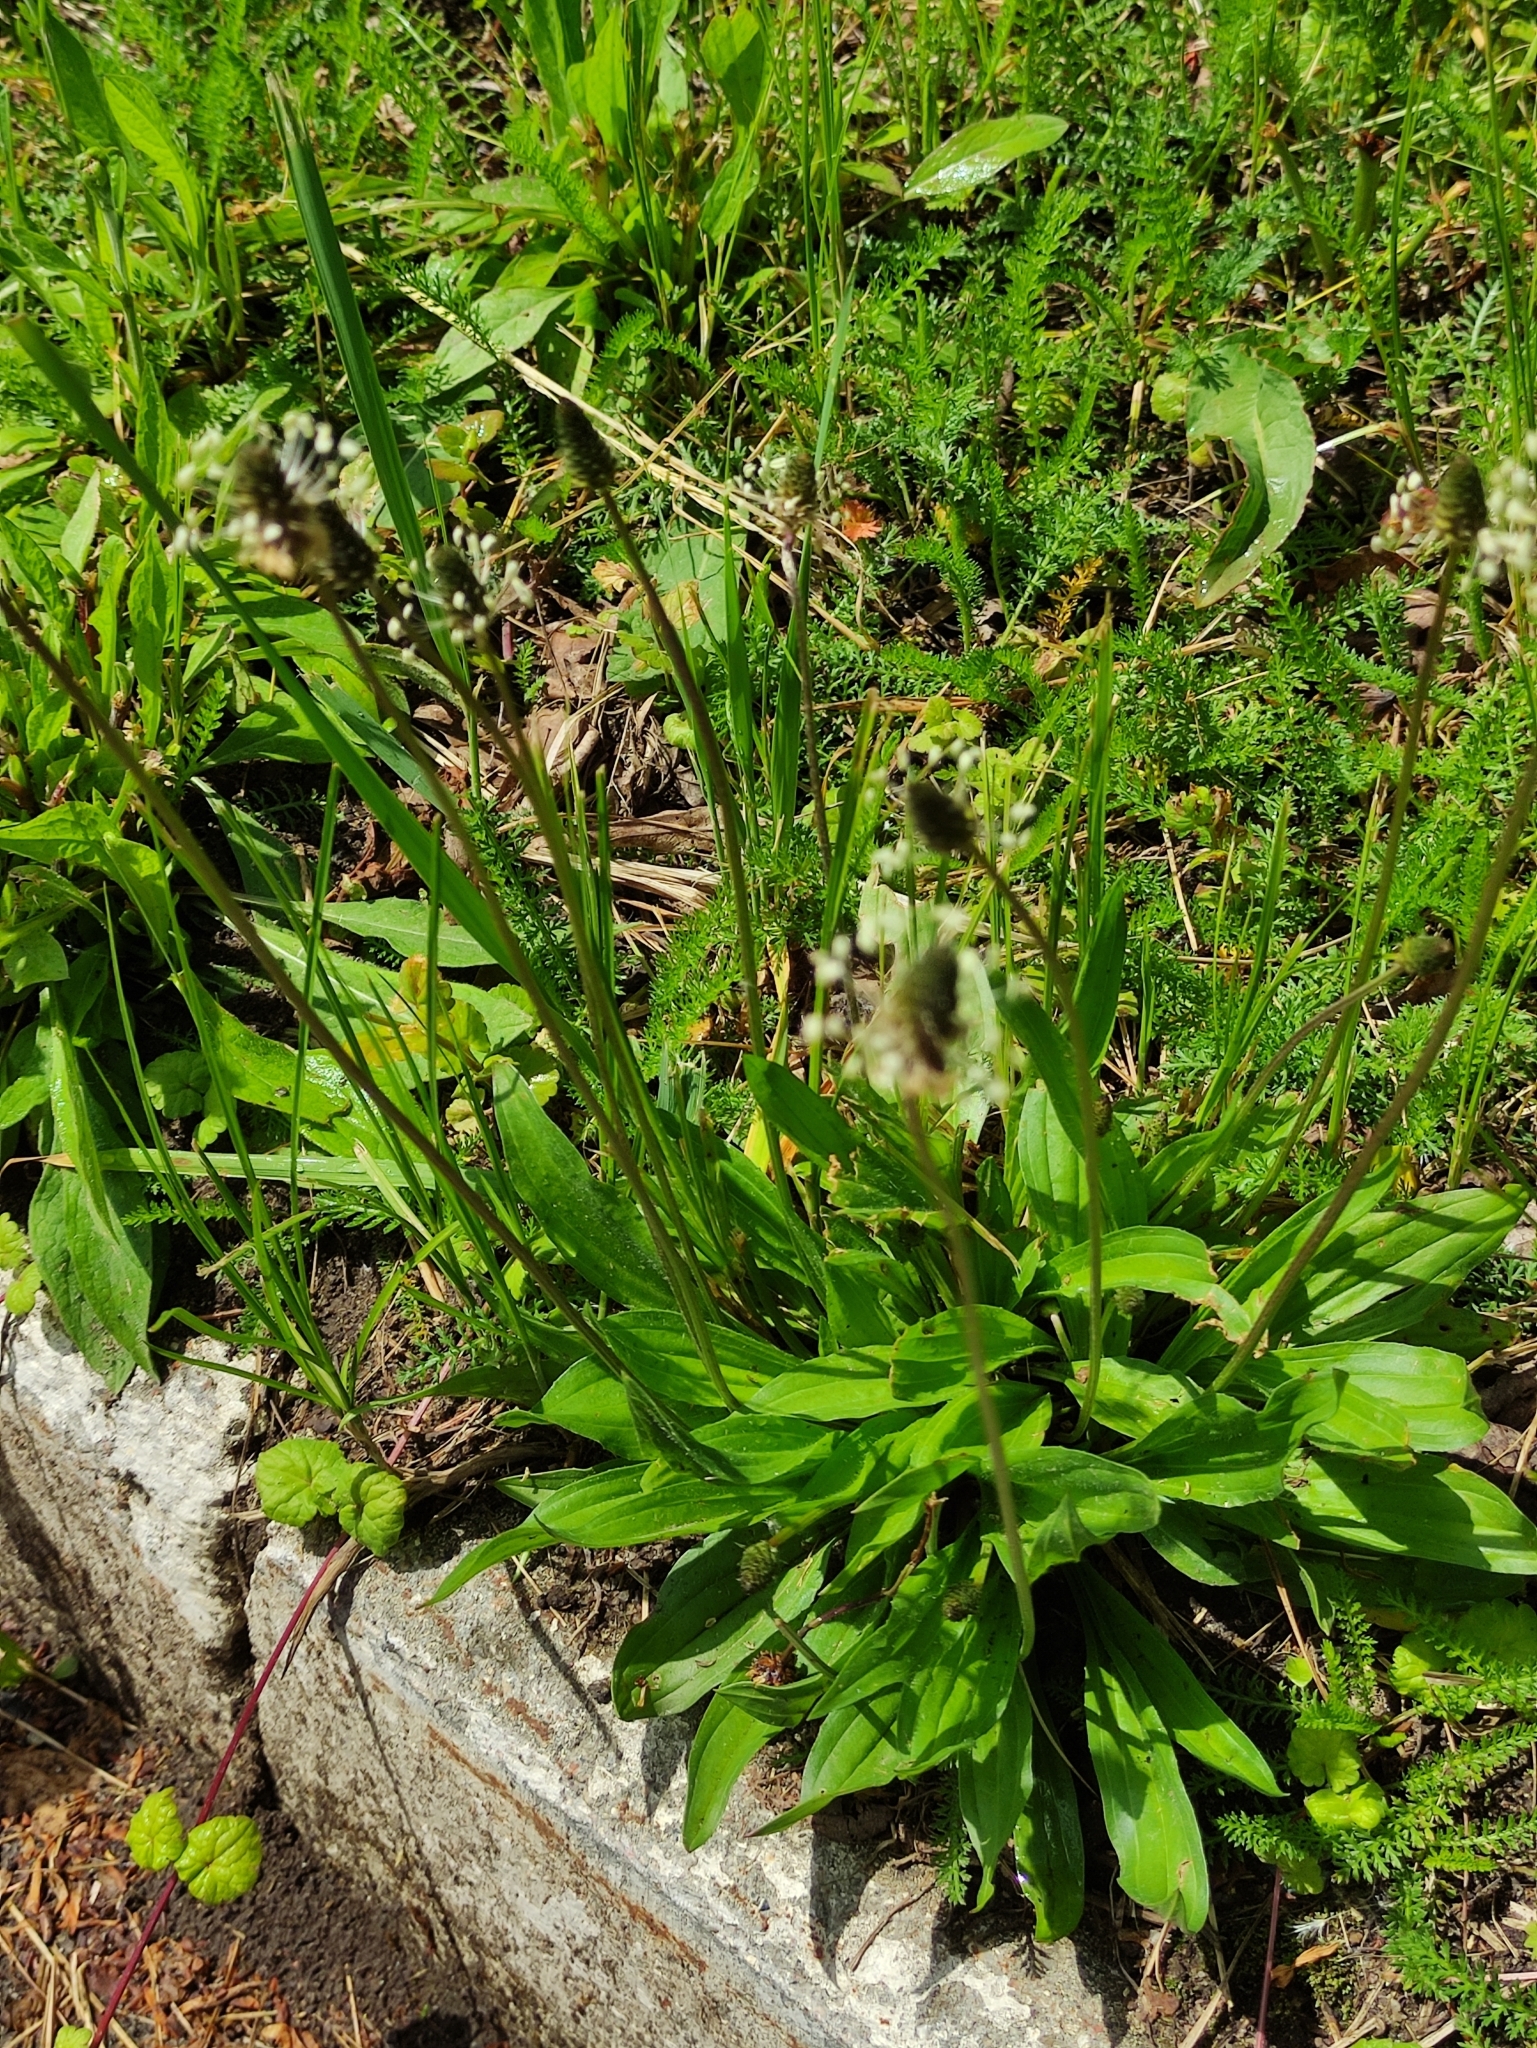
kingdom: Plantae
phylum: Tracheophyta
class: Magnoliopsida
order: Lamiales
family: Plantaginaceae
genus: Plantago
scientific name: Plantago lanceolata
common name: Ribwort plantain
